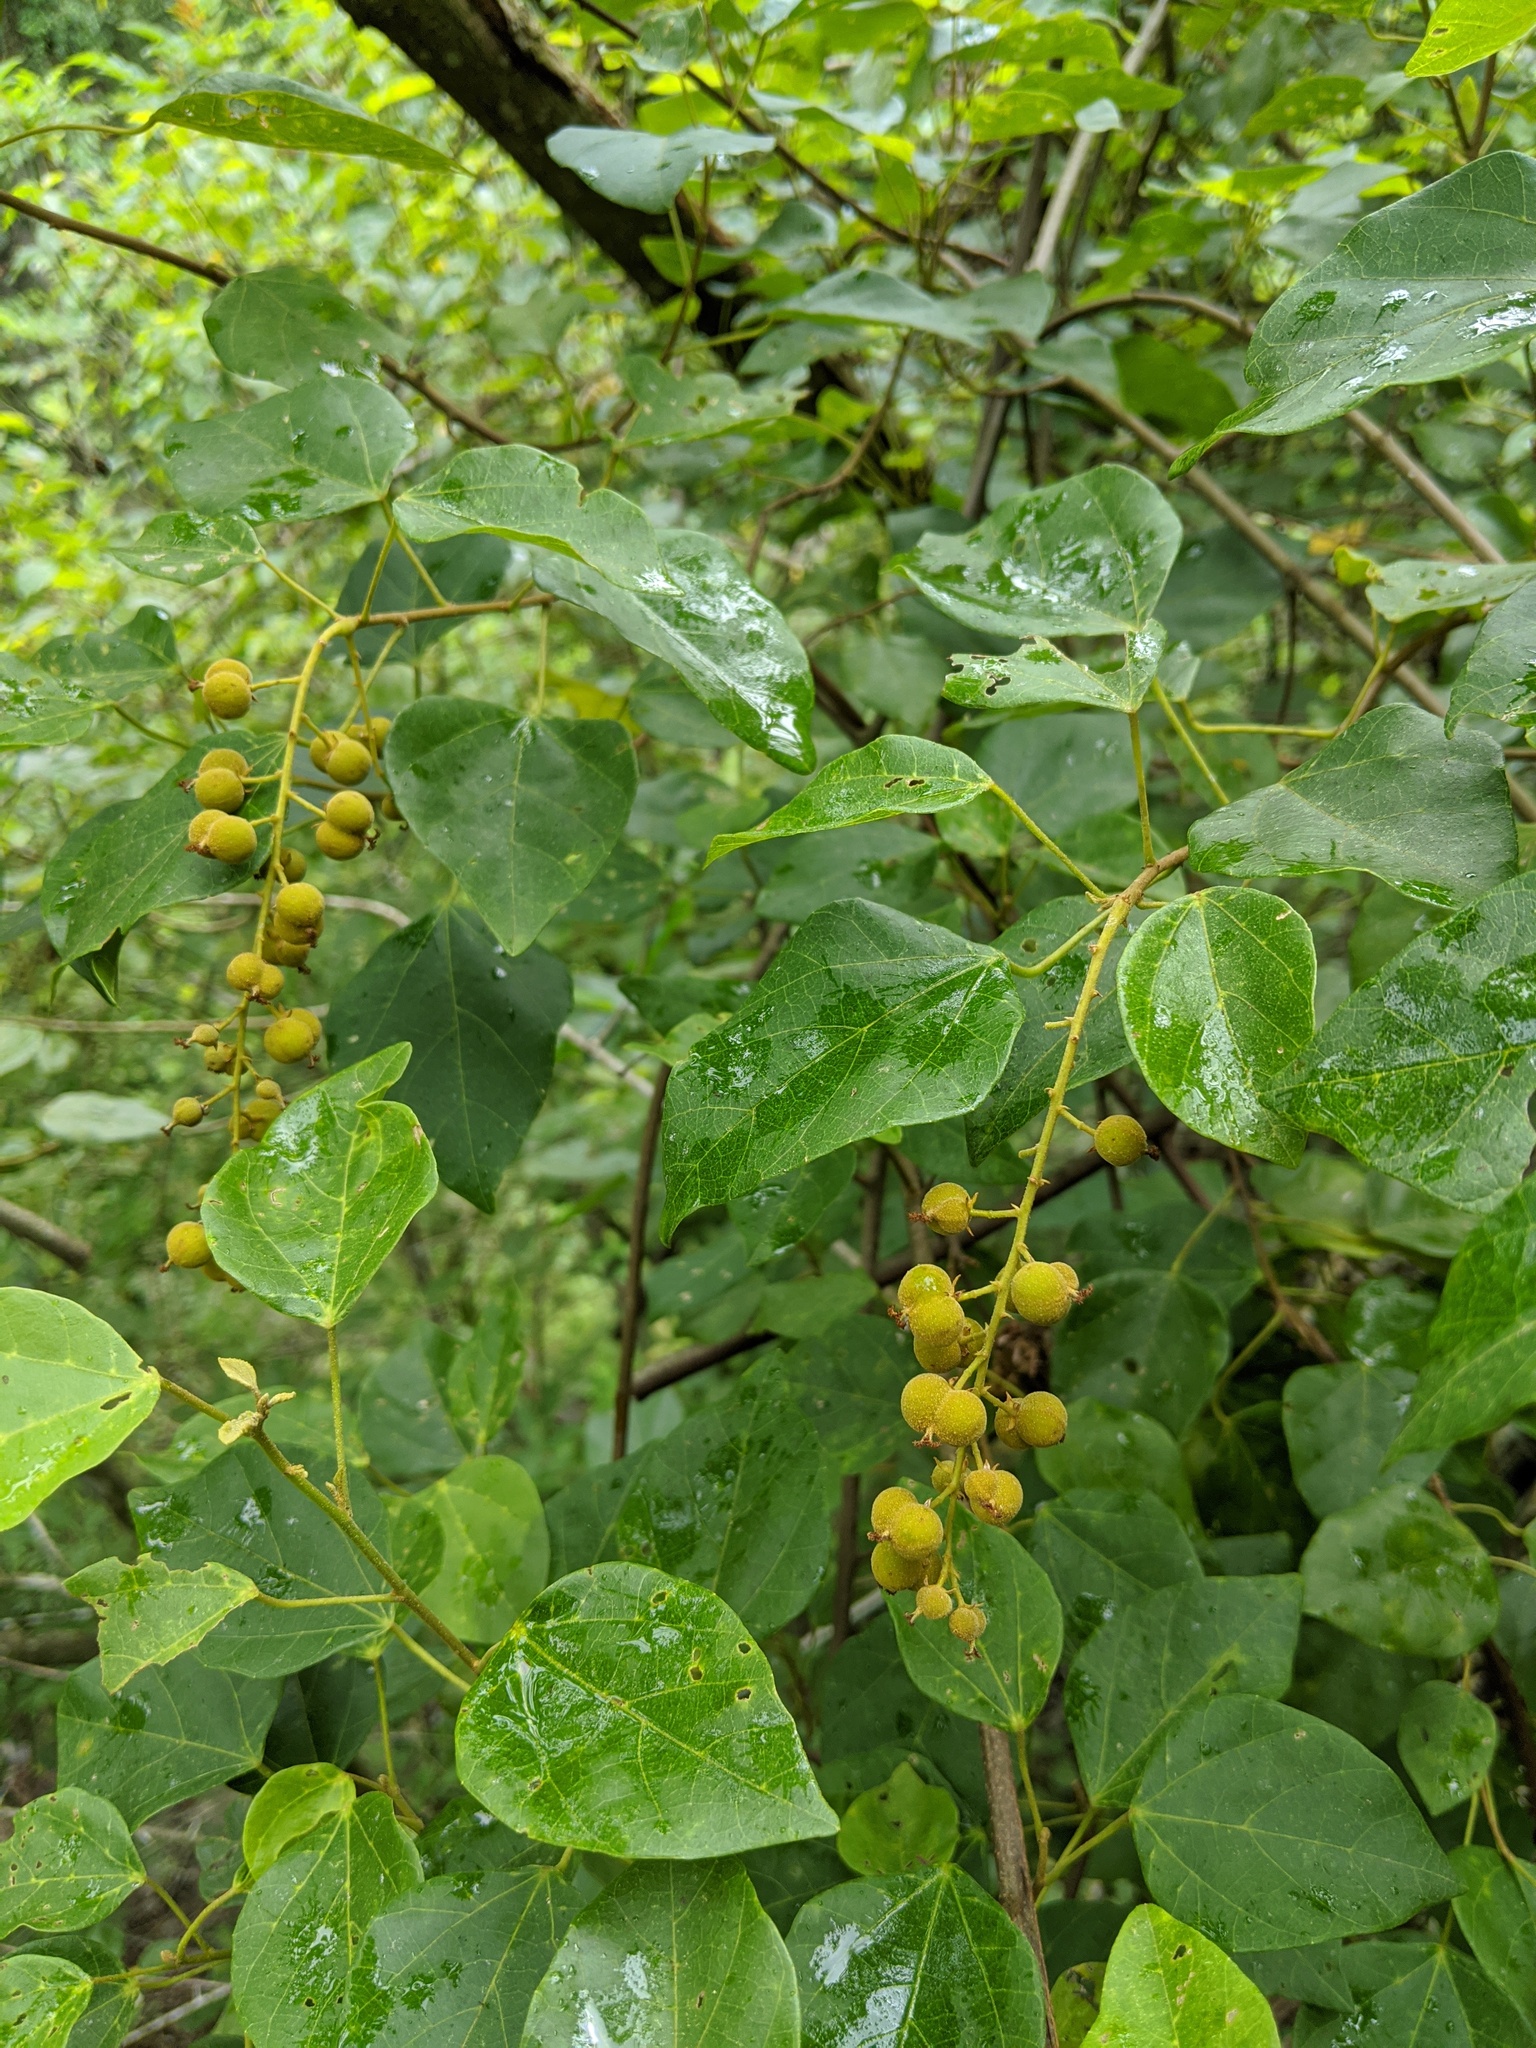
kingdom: Plantae
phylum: Tracheophyta
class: Magnoliopsida
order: Malpighiales
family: Euphorbiaceae
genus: Mallotus
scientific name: Mallotus repandus
